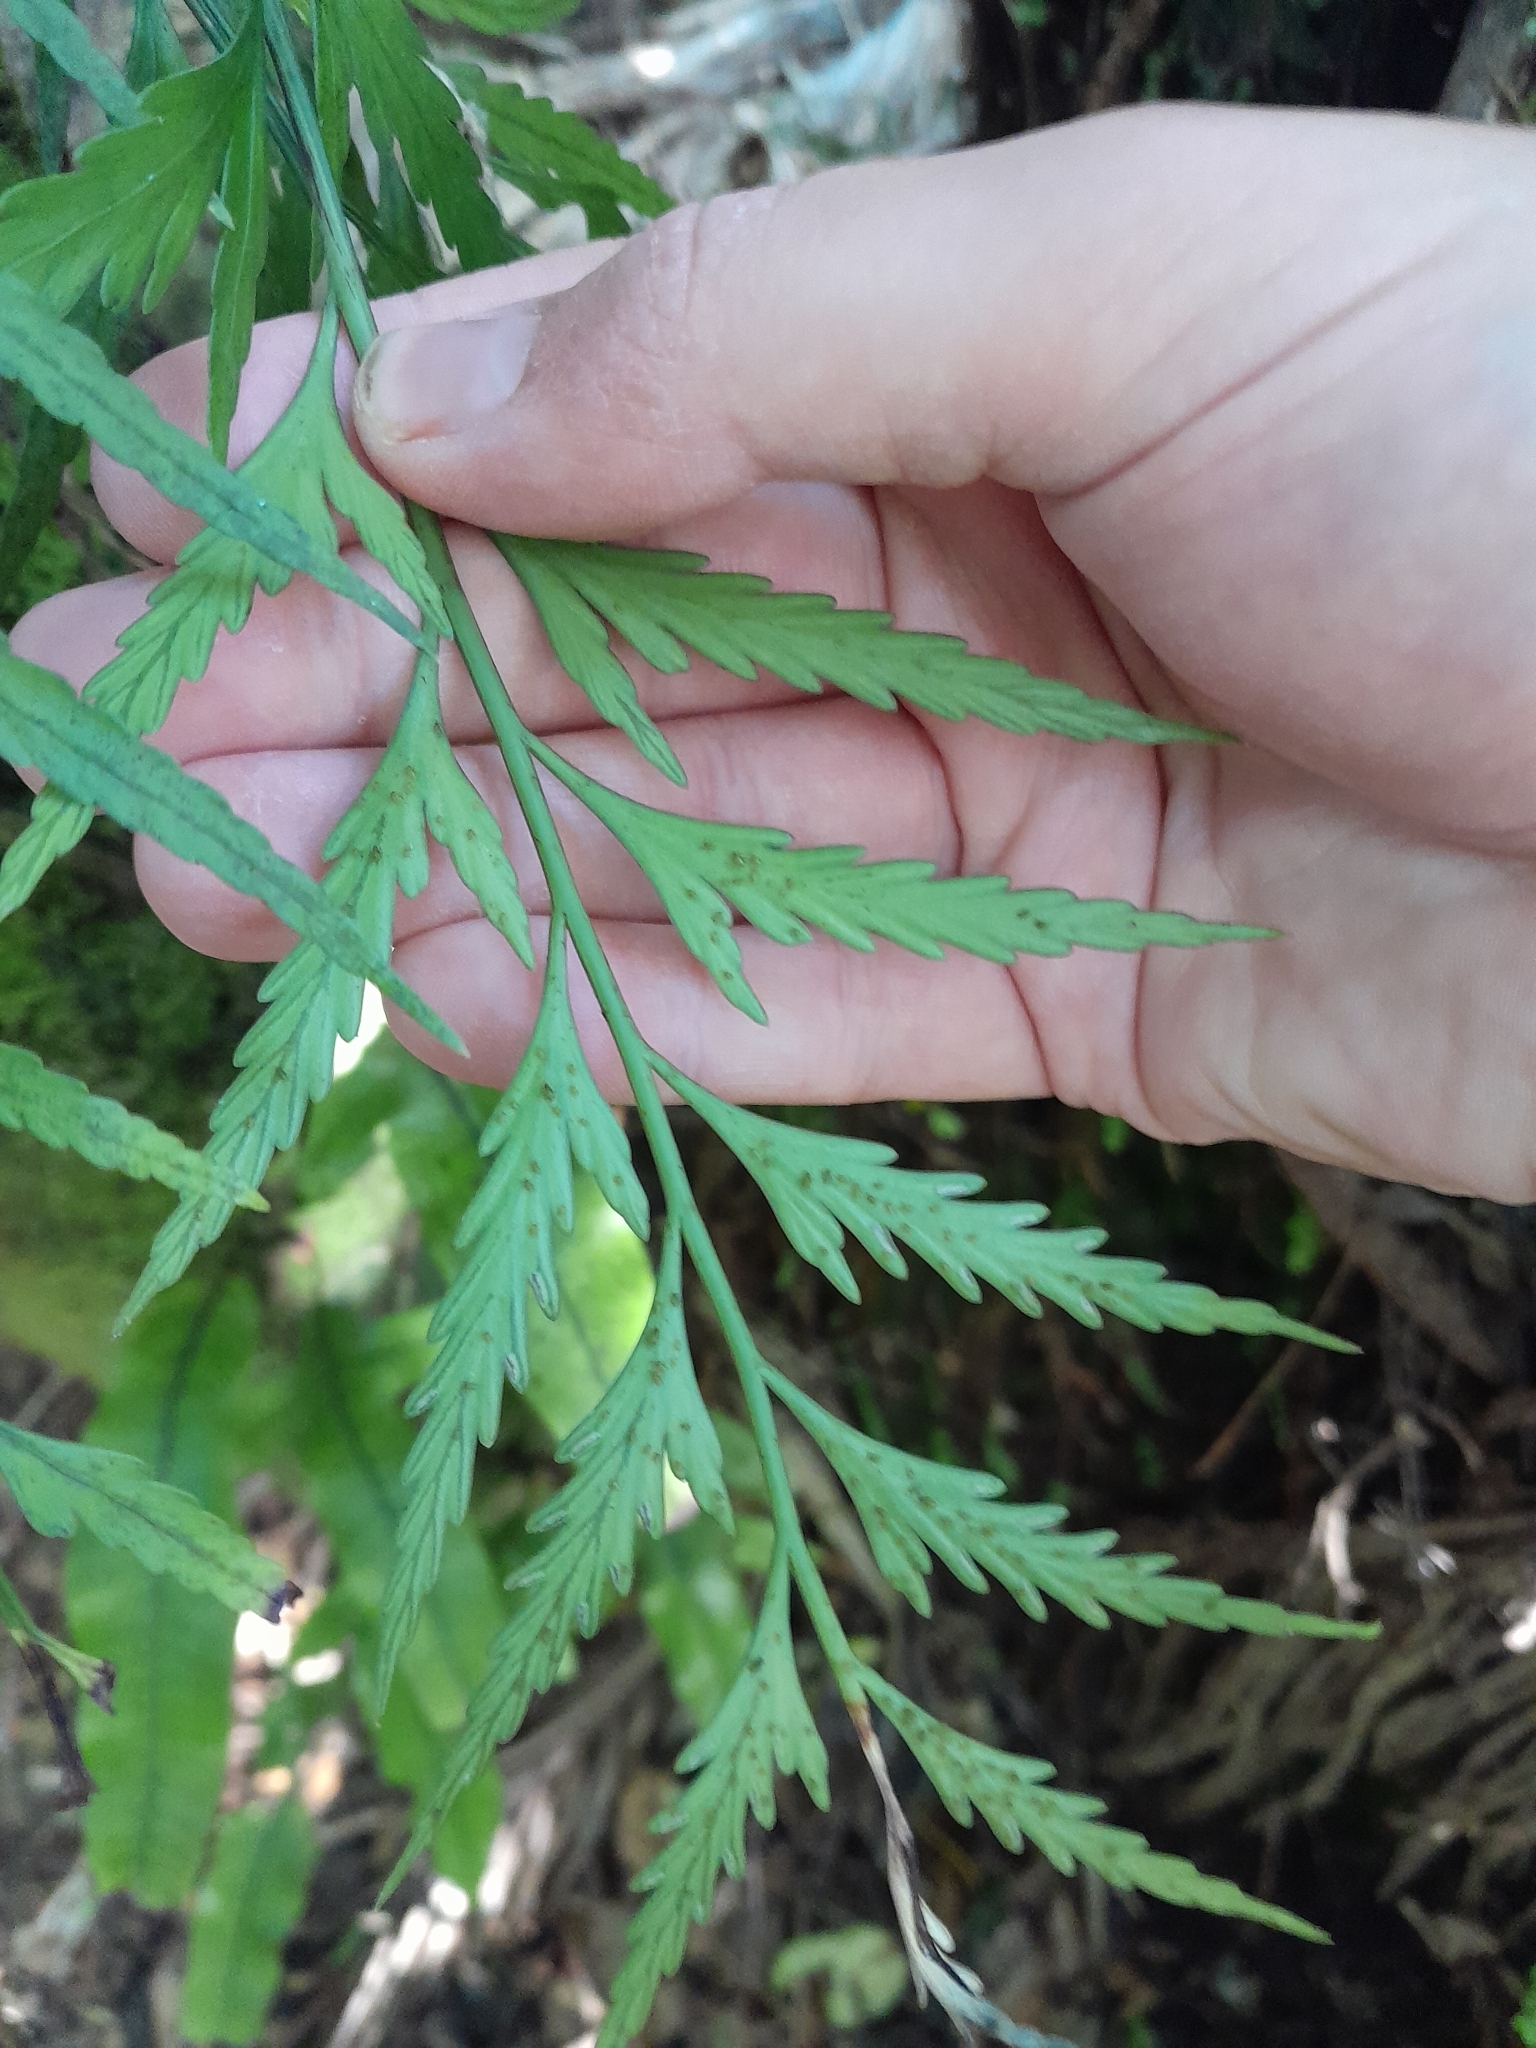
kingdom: Plantae
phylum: Tracheophyta
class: Polypodiopsida
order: Polypodiales
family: Aspleniaceae
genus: Asplenium
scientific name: Asplenium flaccidum
